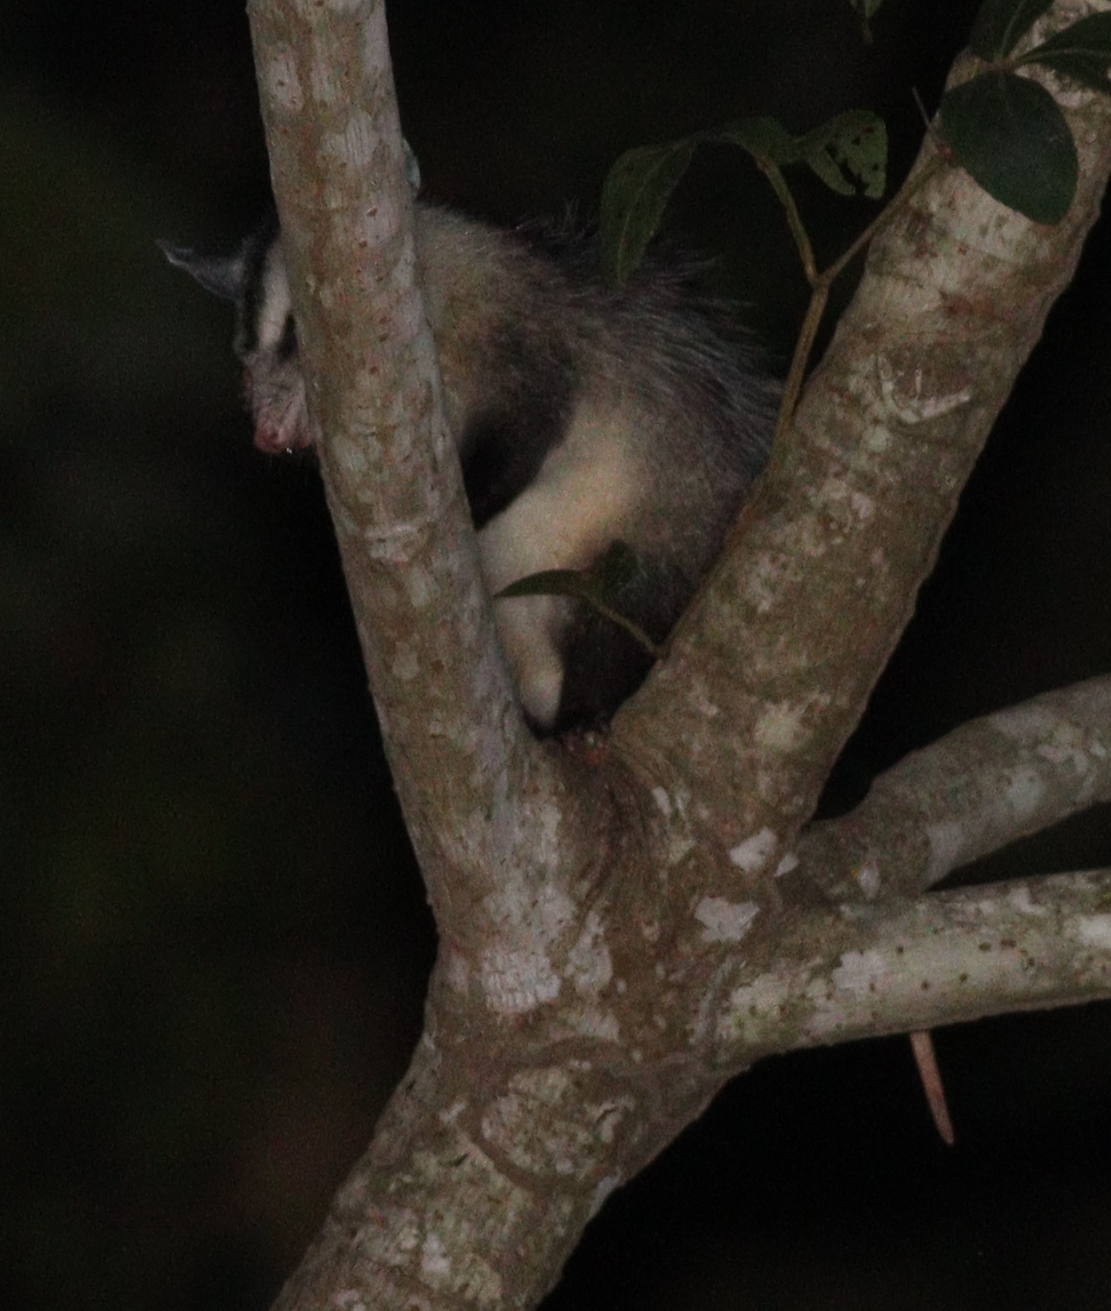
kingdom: Animalia
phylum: Chordata
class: Mammalia
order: Didelphimorphia
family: Didelphidae
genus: Didelphis
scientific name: Didelphis albiventris
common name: White-eared opossum
